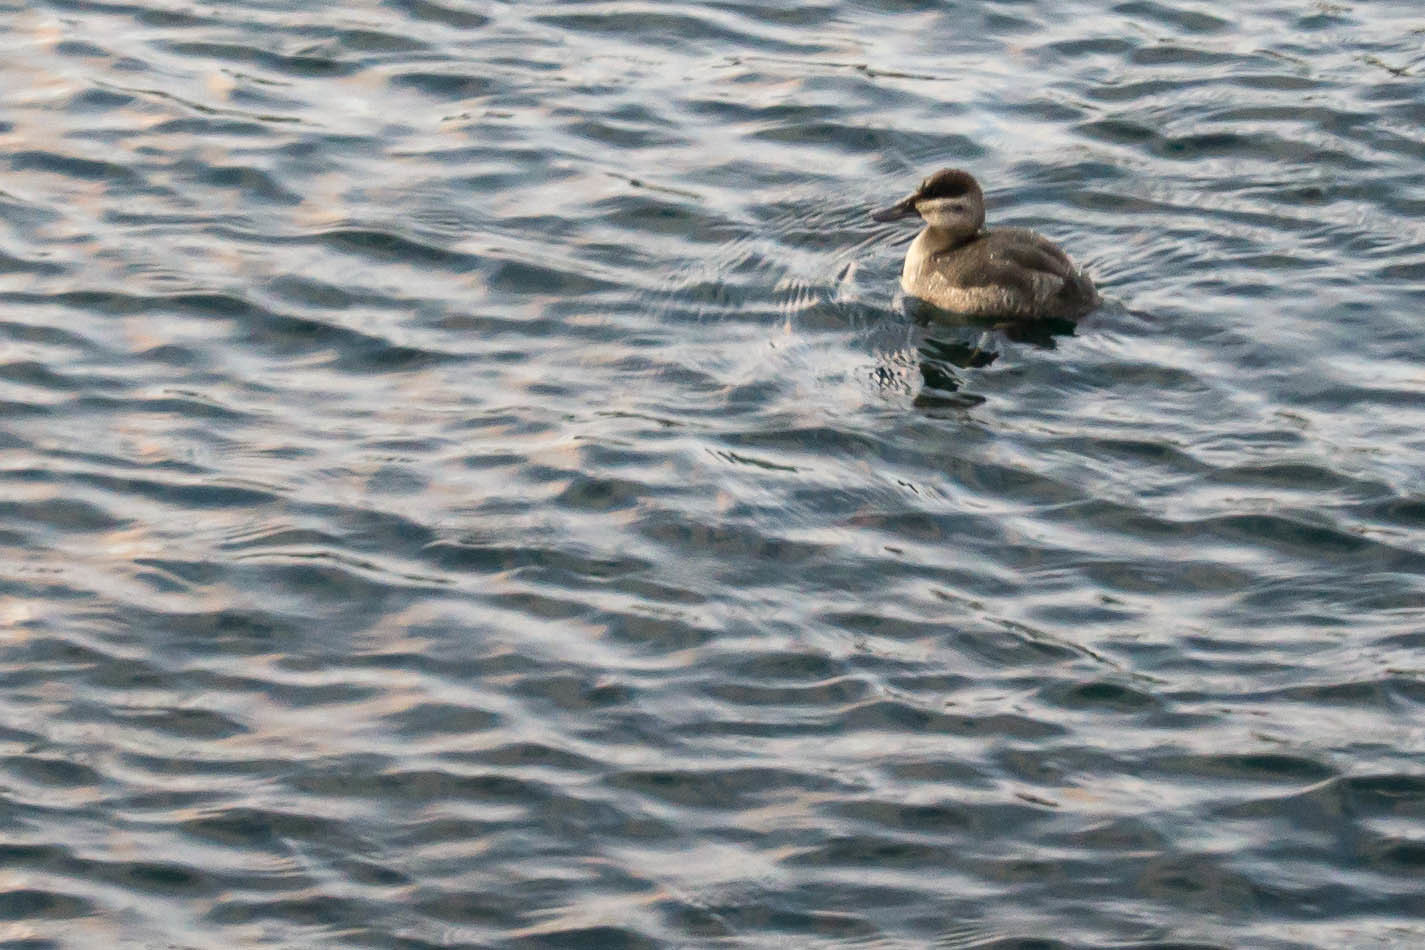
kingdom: Animalia
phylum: Chordata
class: Aves
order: Anseriformes
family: Anatidae
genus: Oxyura
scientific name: Oxyura jamaicensis
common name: Ruddy duck
